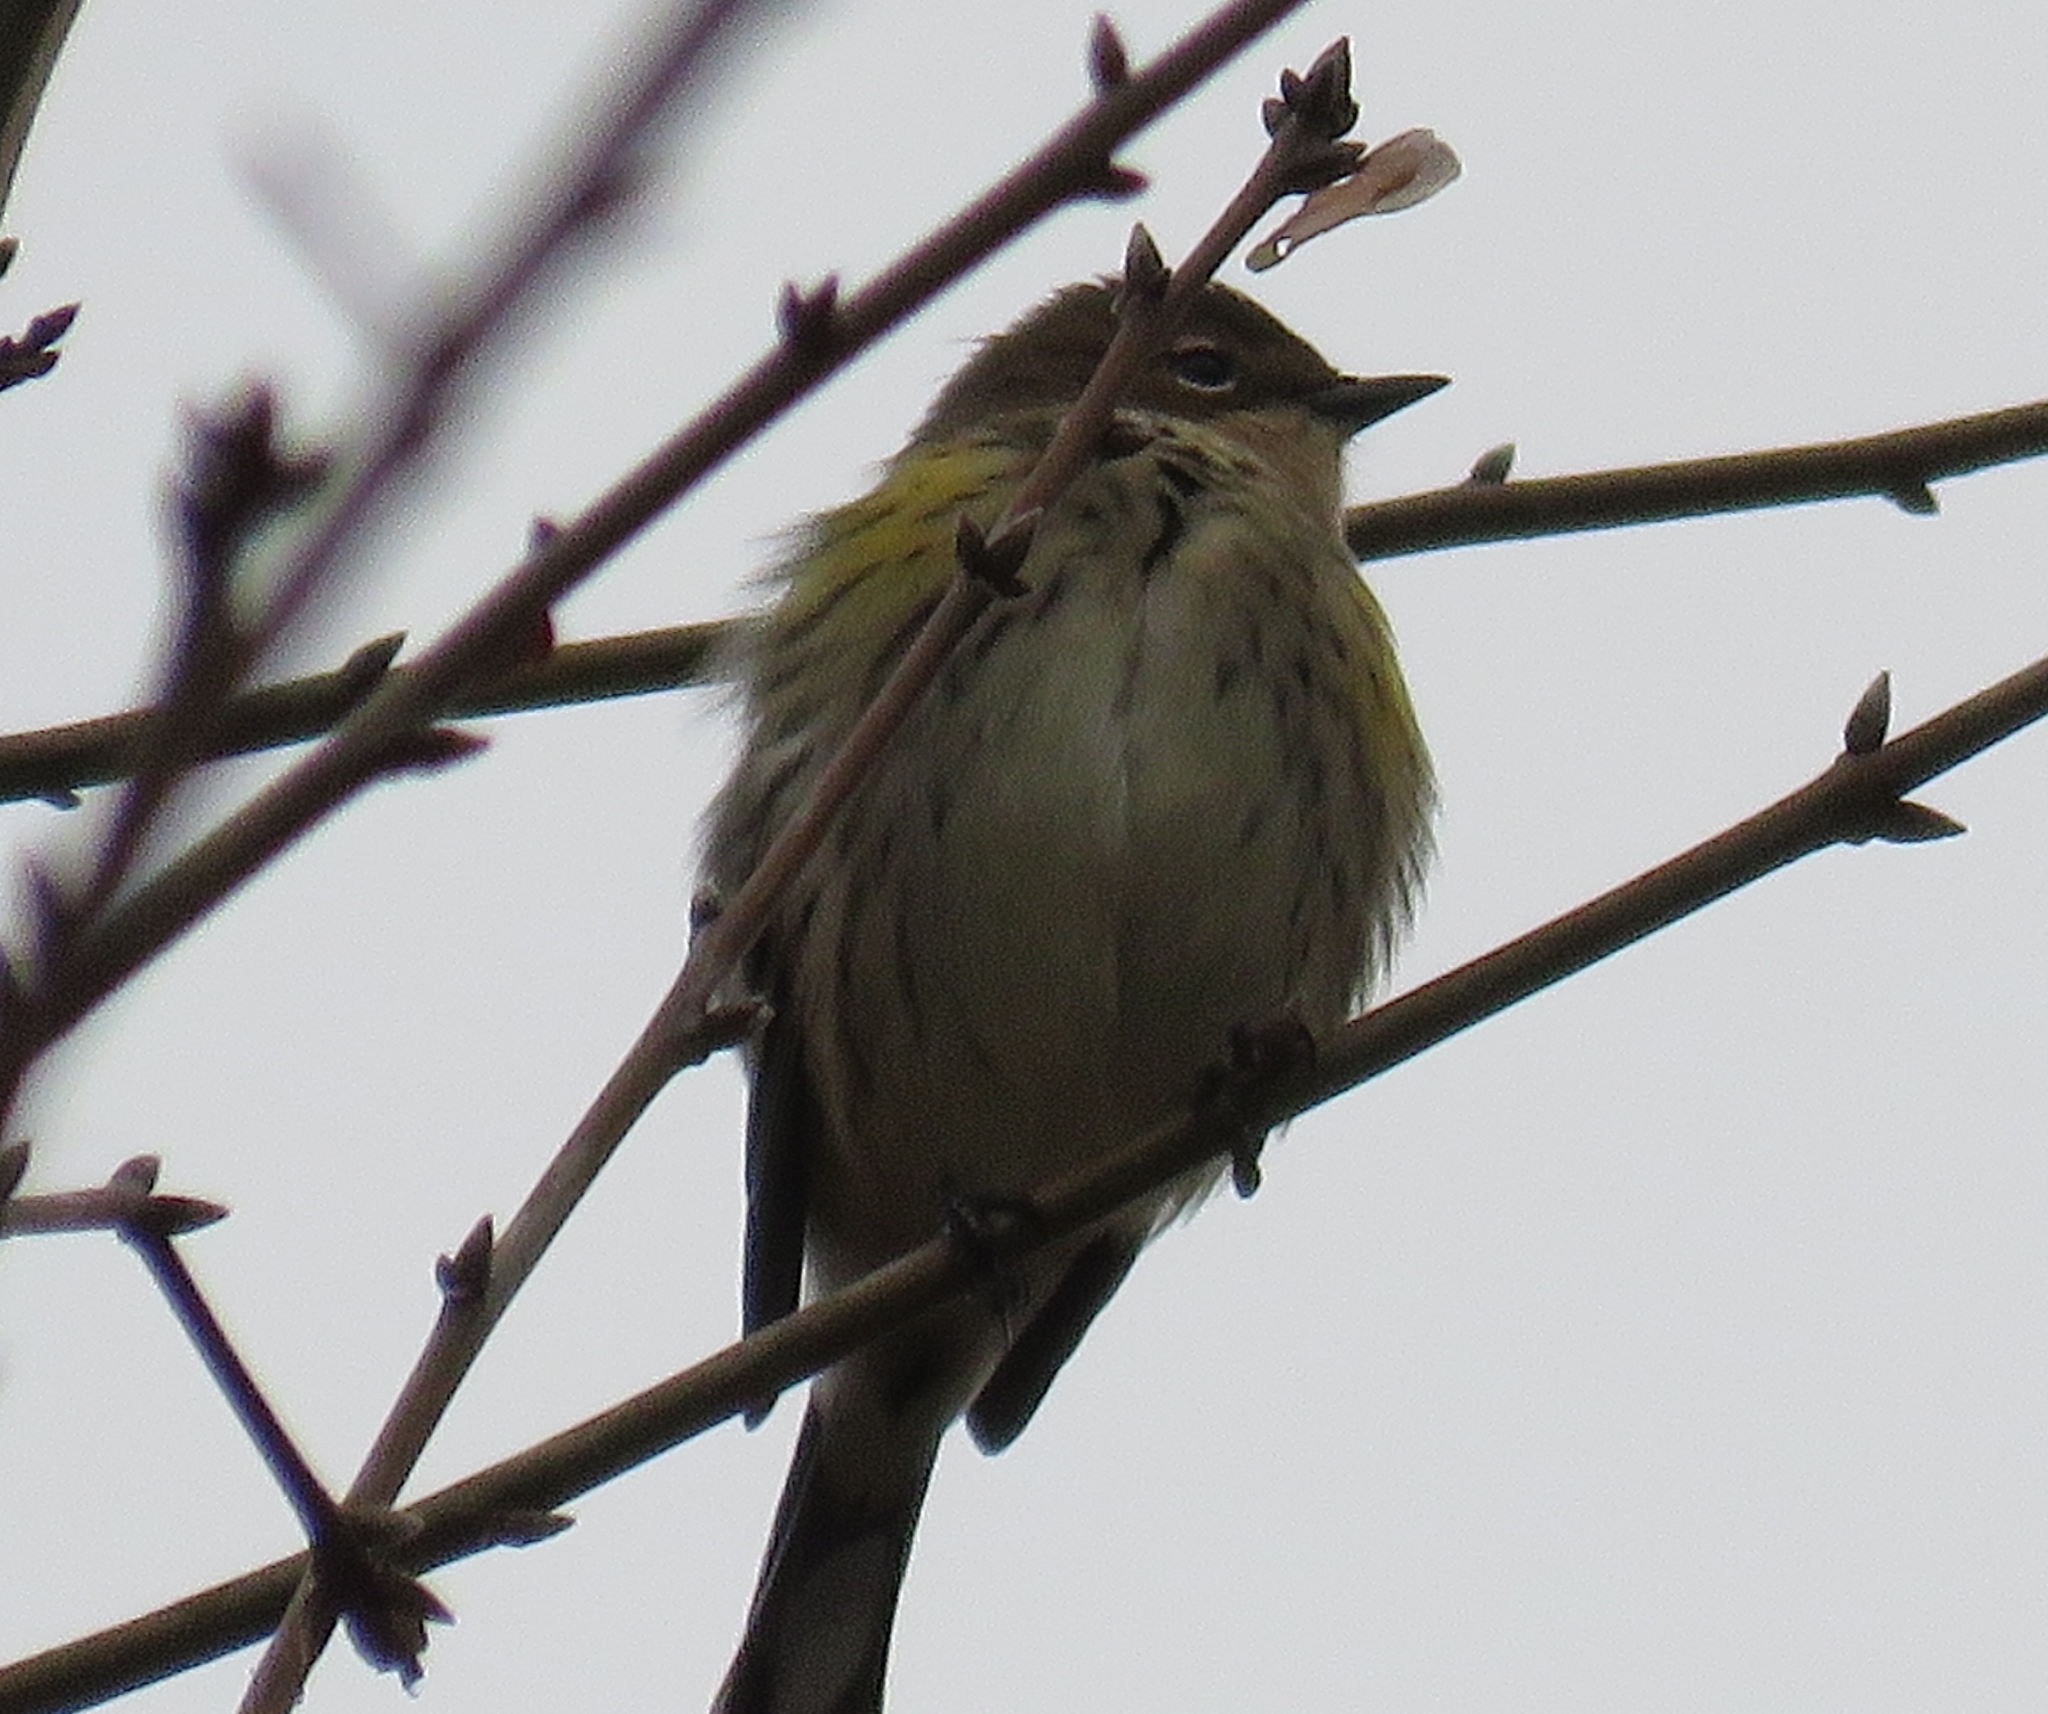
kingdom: Animalia
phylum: Chordata
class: Aves
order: Passeriformes
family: Parulidae
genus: Setophaga
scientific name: Setophaga coronata
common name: Myrtle warbler
